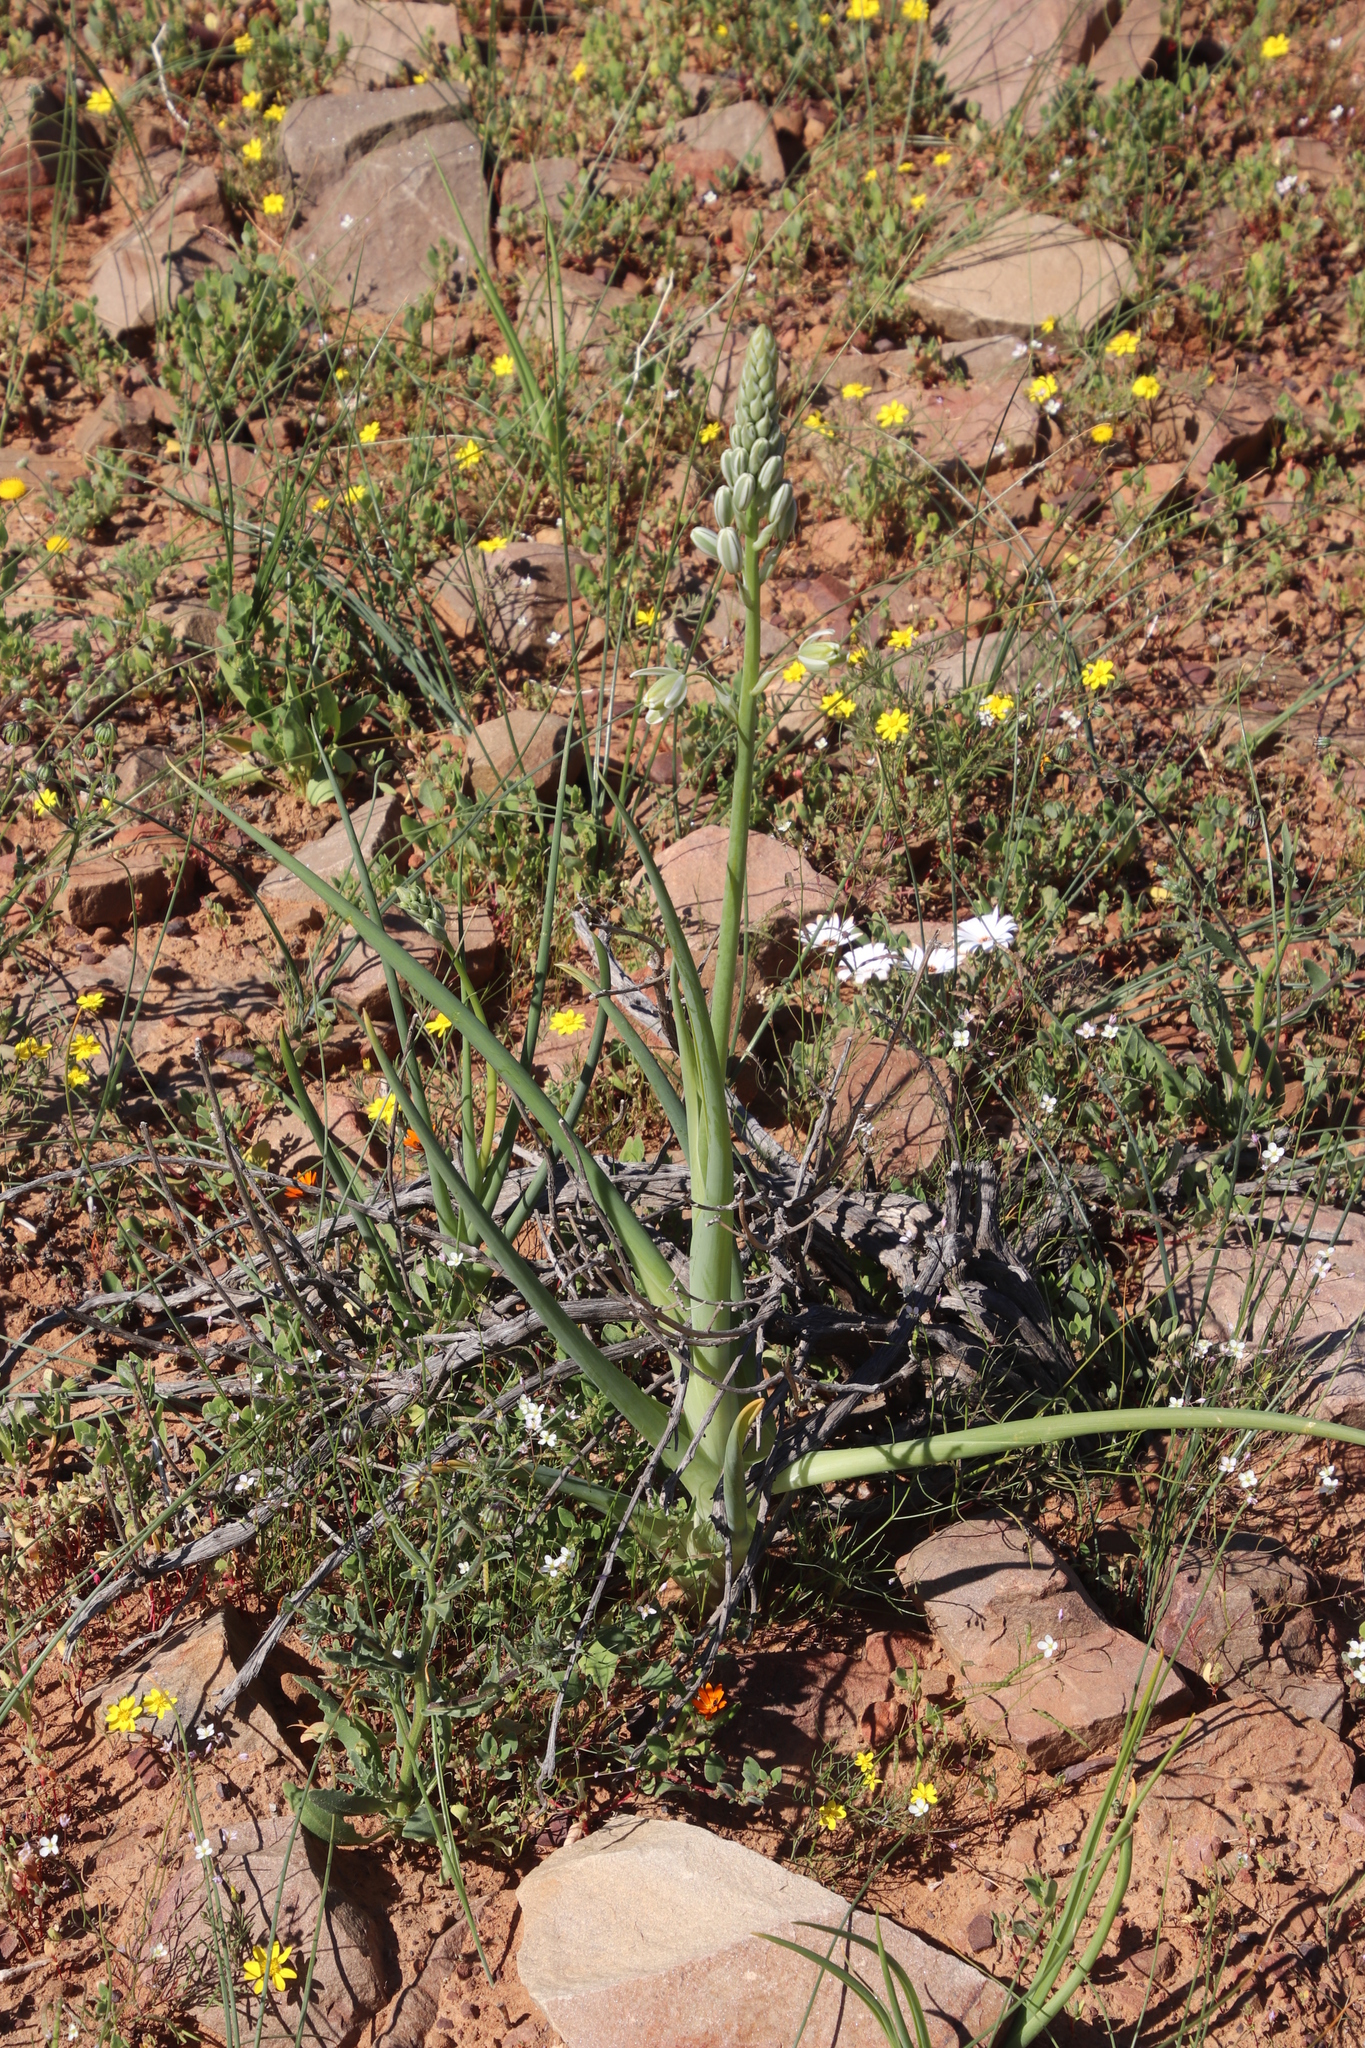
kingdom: Plantae
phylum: Tracheophyta
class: Liliopsida
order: Asparagales
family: Asparagaceae
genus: Albuca
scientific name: Albuca decipiens
